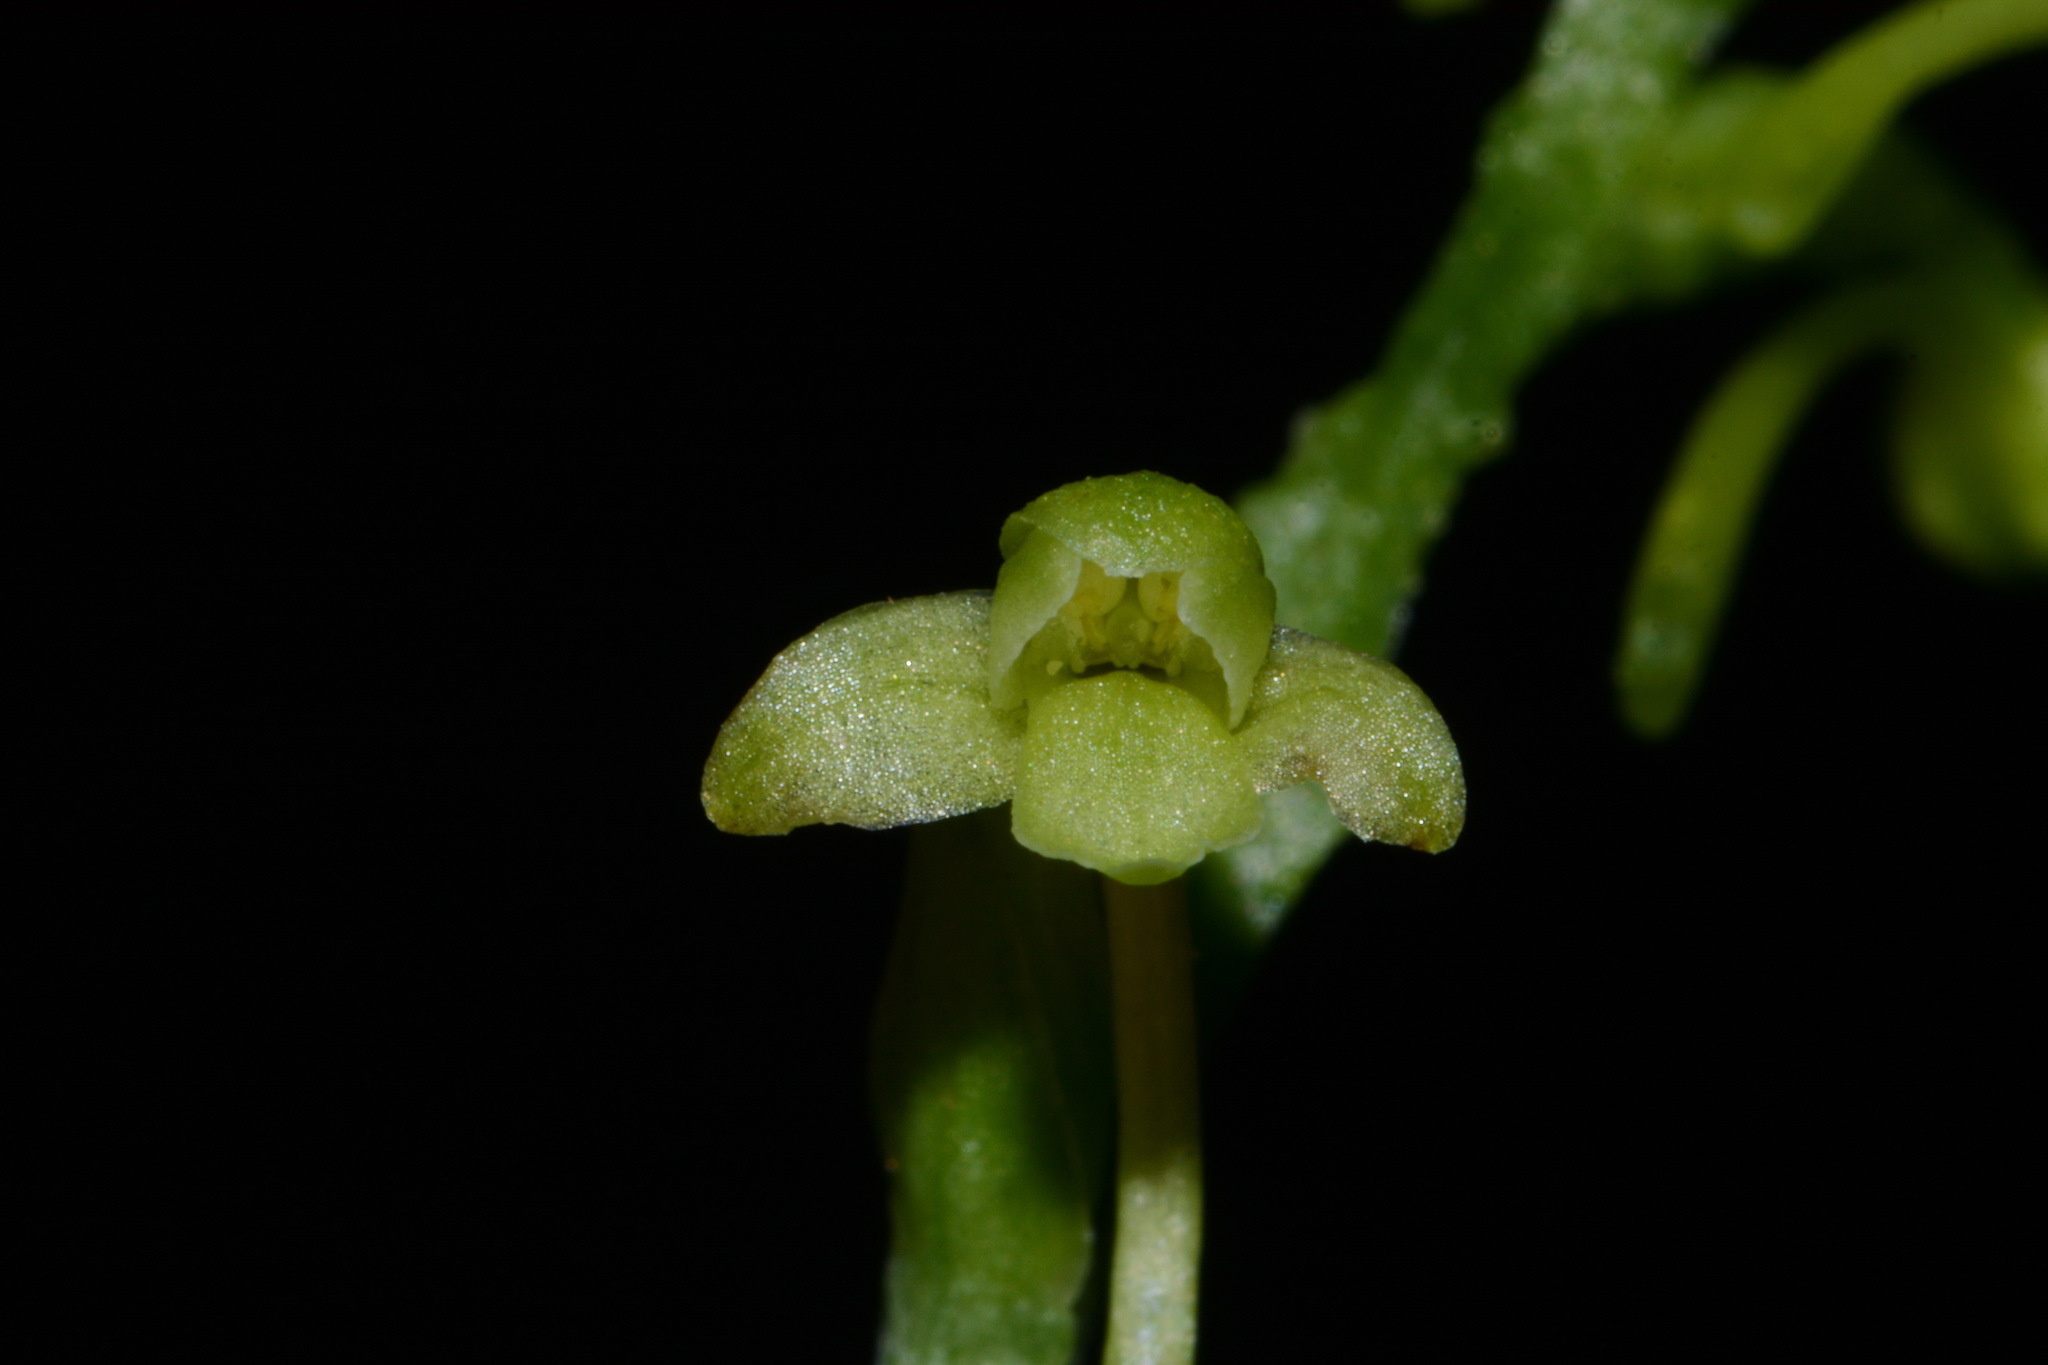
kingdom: Plantae
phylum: Tracheophyta
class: Liliopsida
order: Asparagales
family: Orchidaceae
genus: Platanthera
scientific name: Platanthera clavellata
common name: Club-spur orchid
